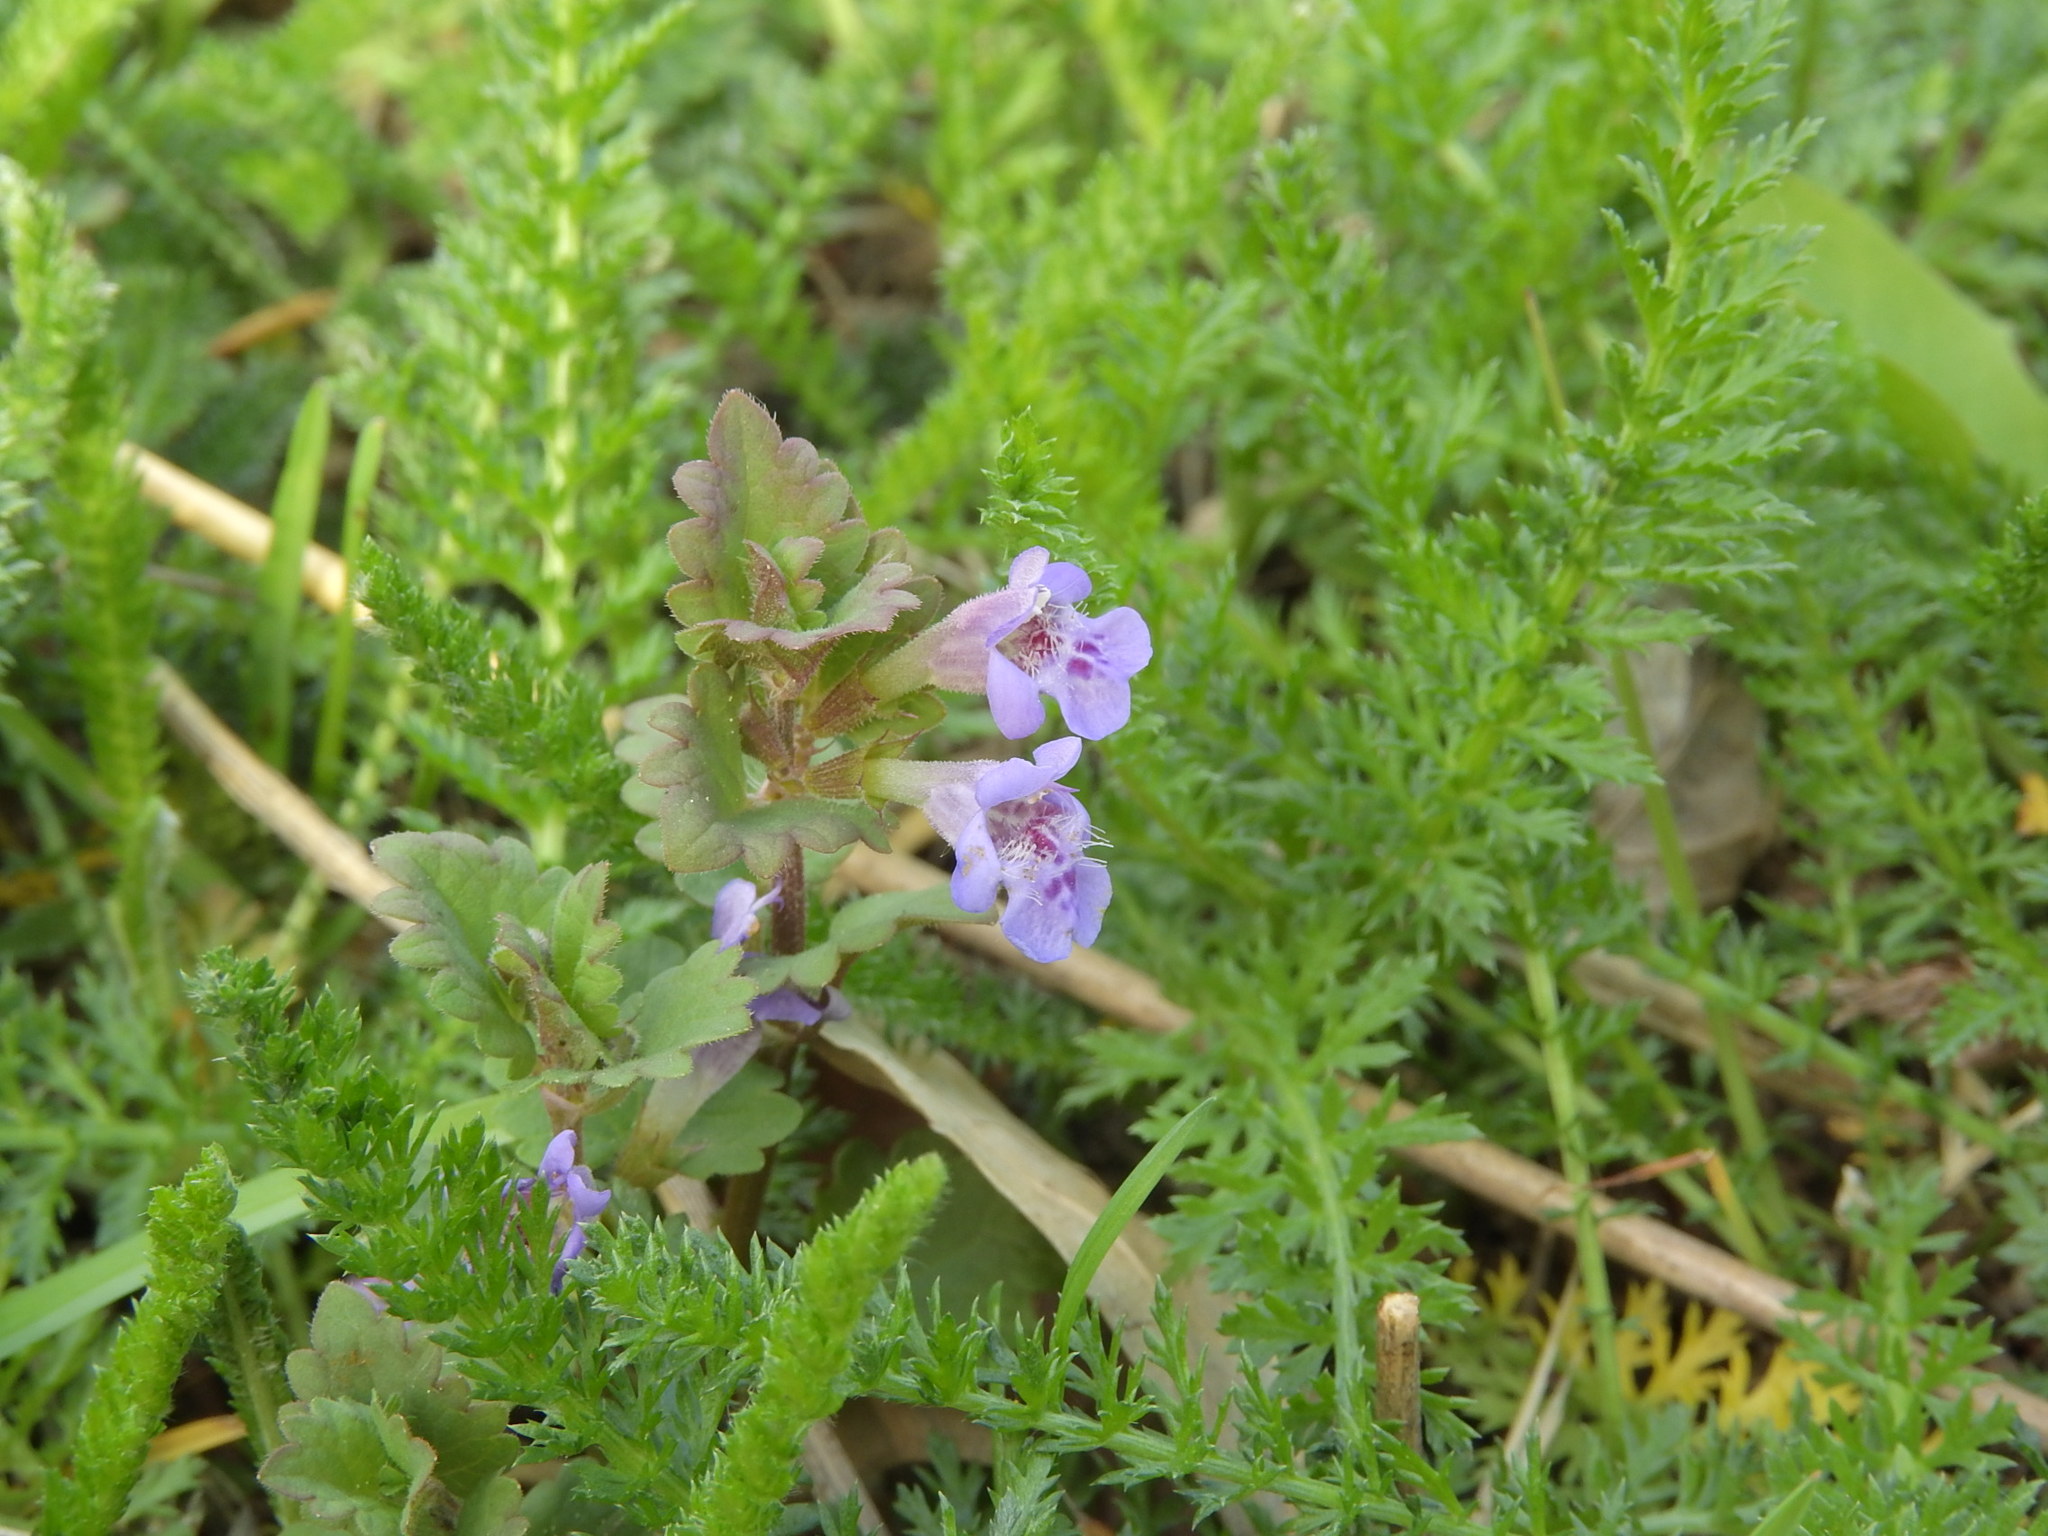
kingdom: Plantae
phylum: Tracheophyta
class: Magnoliopsida
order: Lamiales
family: Lamiaceae
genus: Glechoma
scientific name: Glechoma hederacea
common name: Ground ivy
